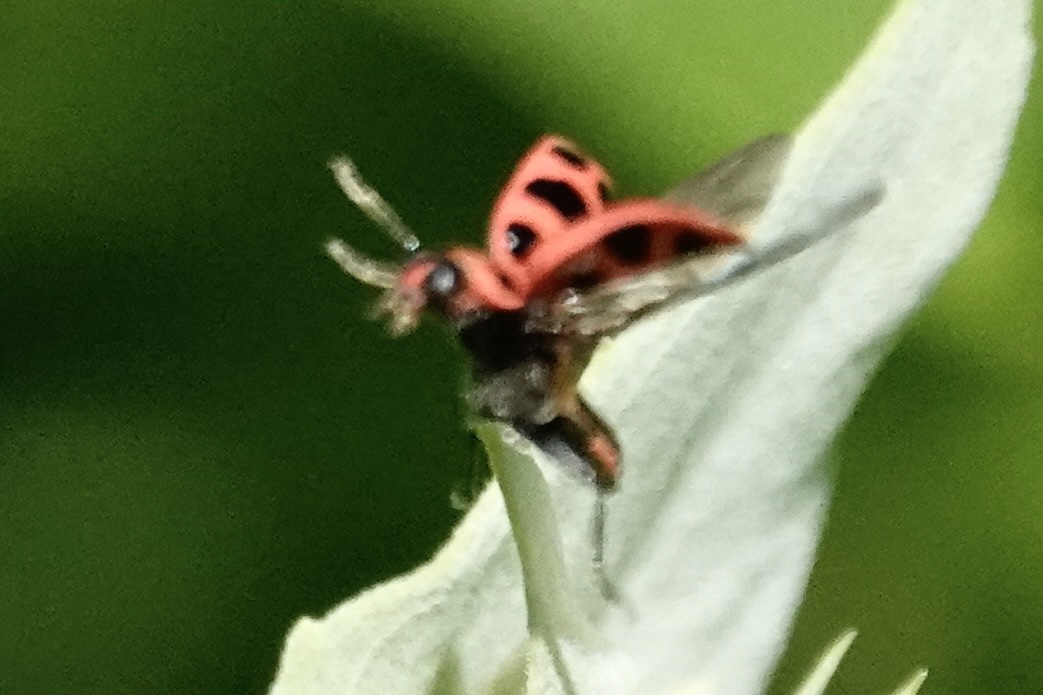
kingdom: Animalia
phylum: Arthropoda
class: Insecta
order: Coleoptera
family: Coccinellidae
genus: Coleomegilla
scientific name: Coleomegilla maculata
